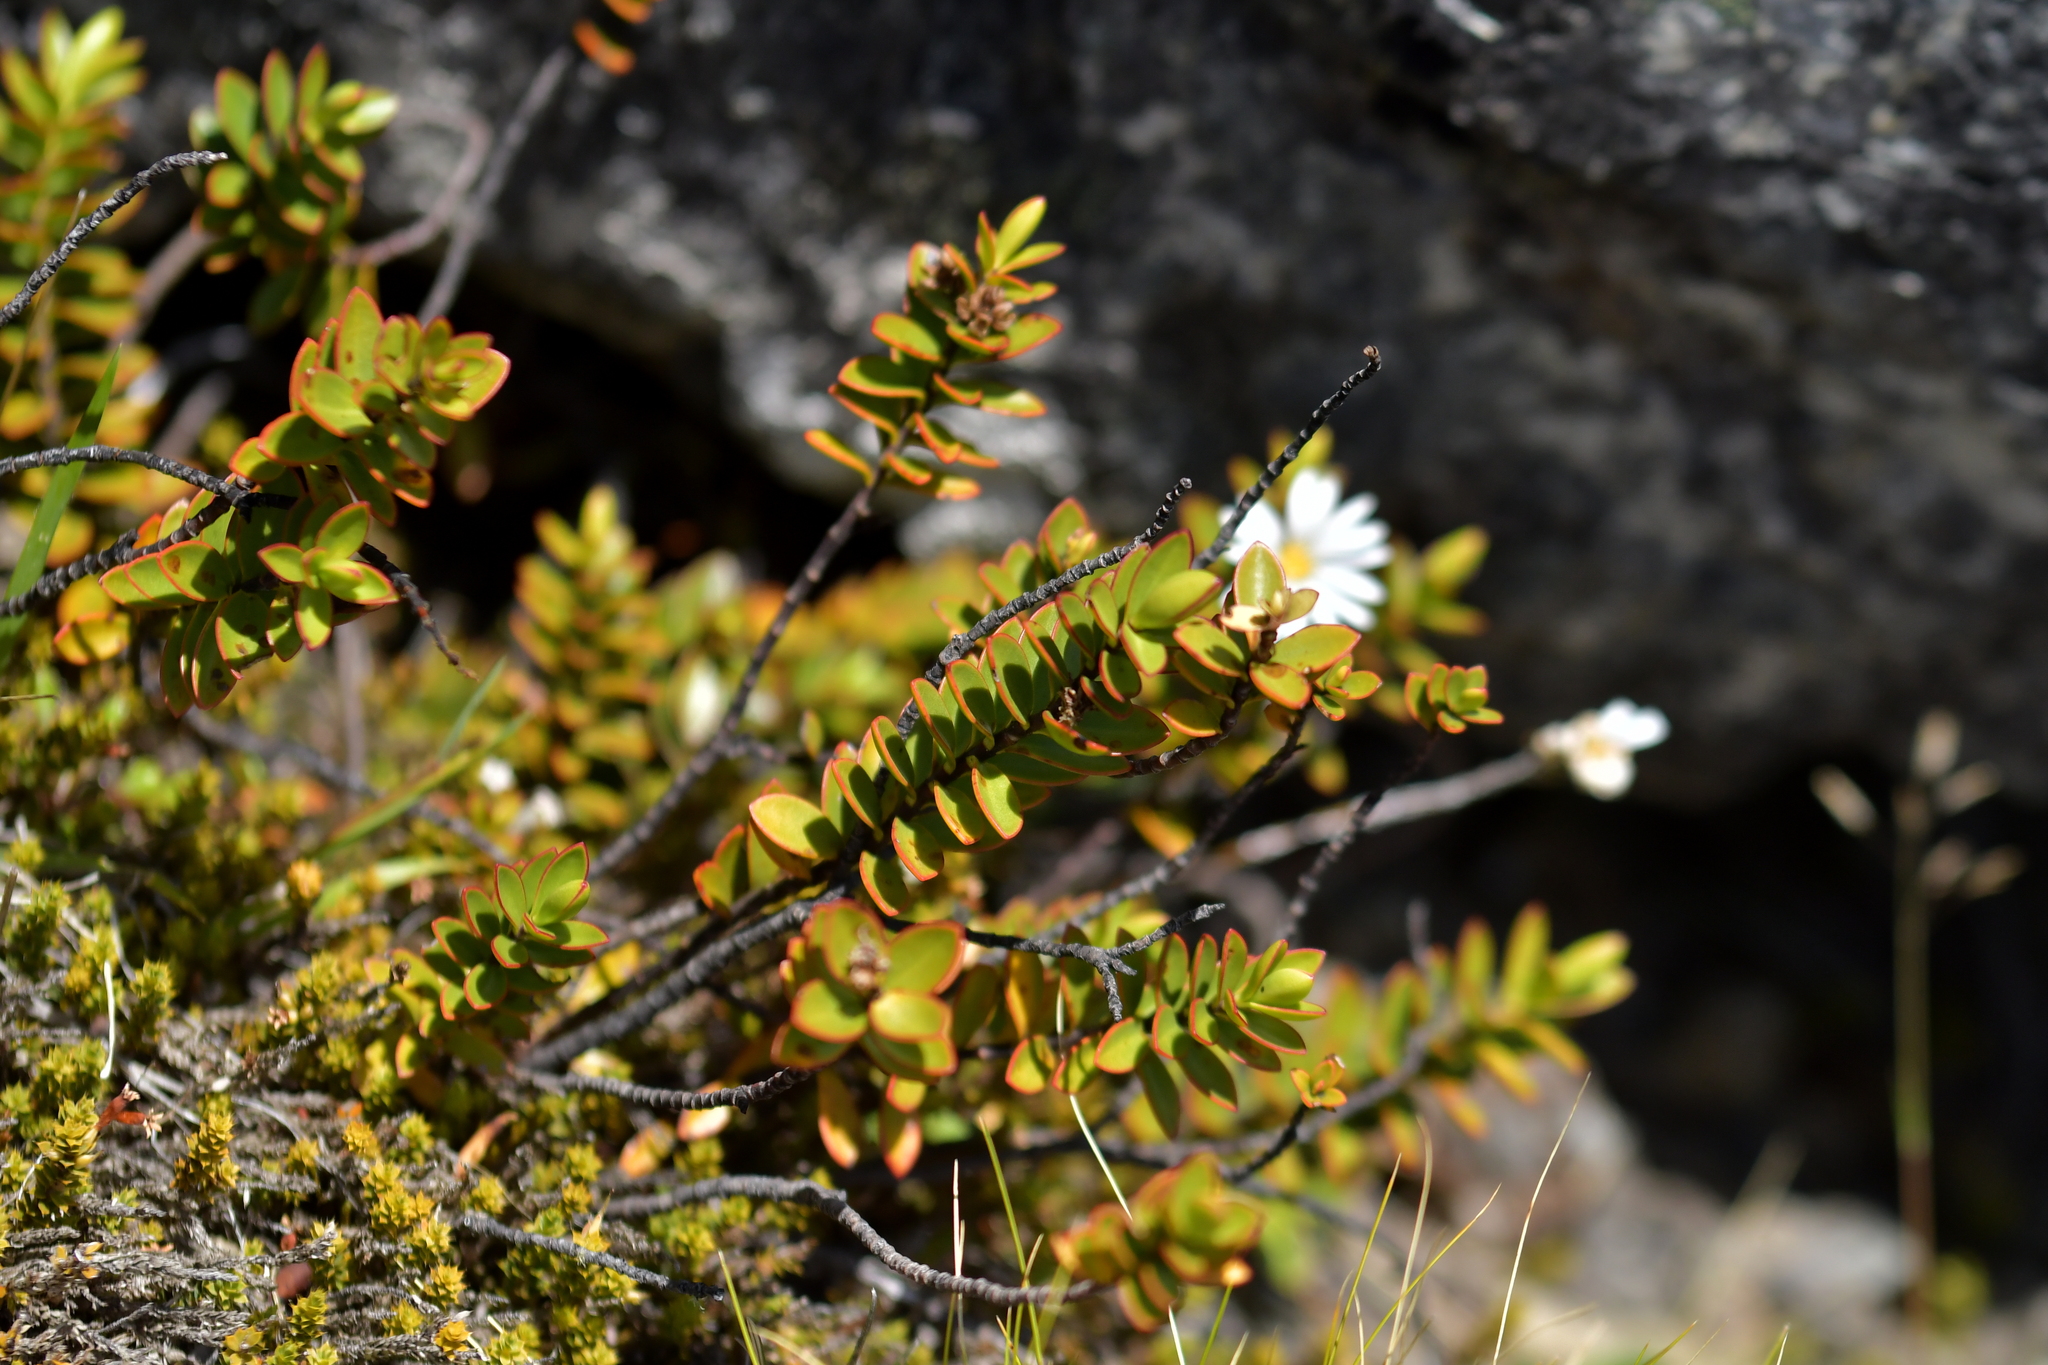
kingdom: Plantae
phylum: Tracheophyta
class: Magnoliopsida
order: Lamiales
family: Plantaginaceae
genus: Veronica
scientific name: Veronica decumbens
